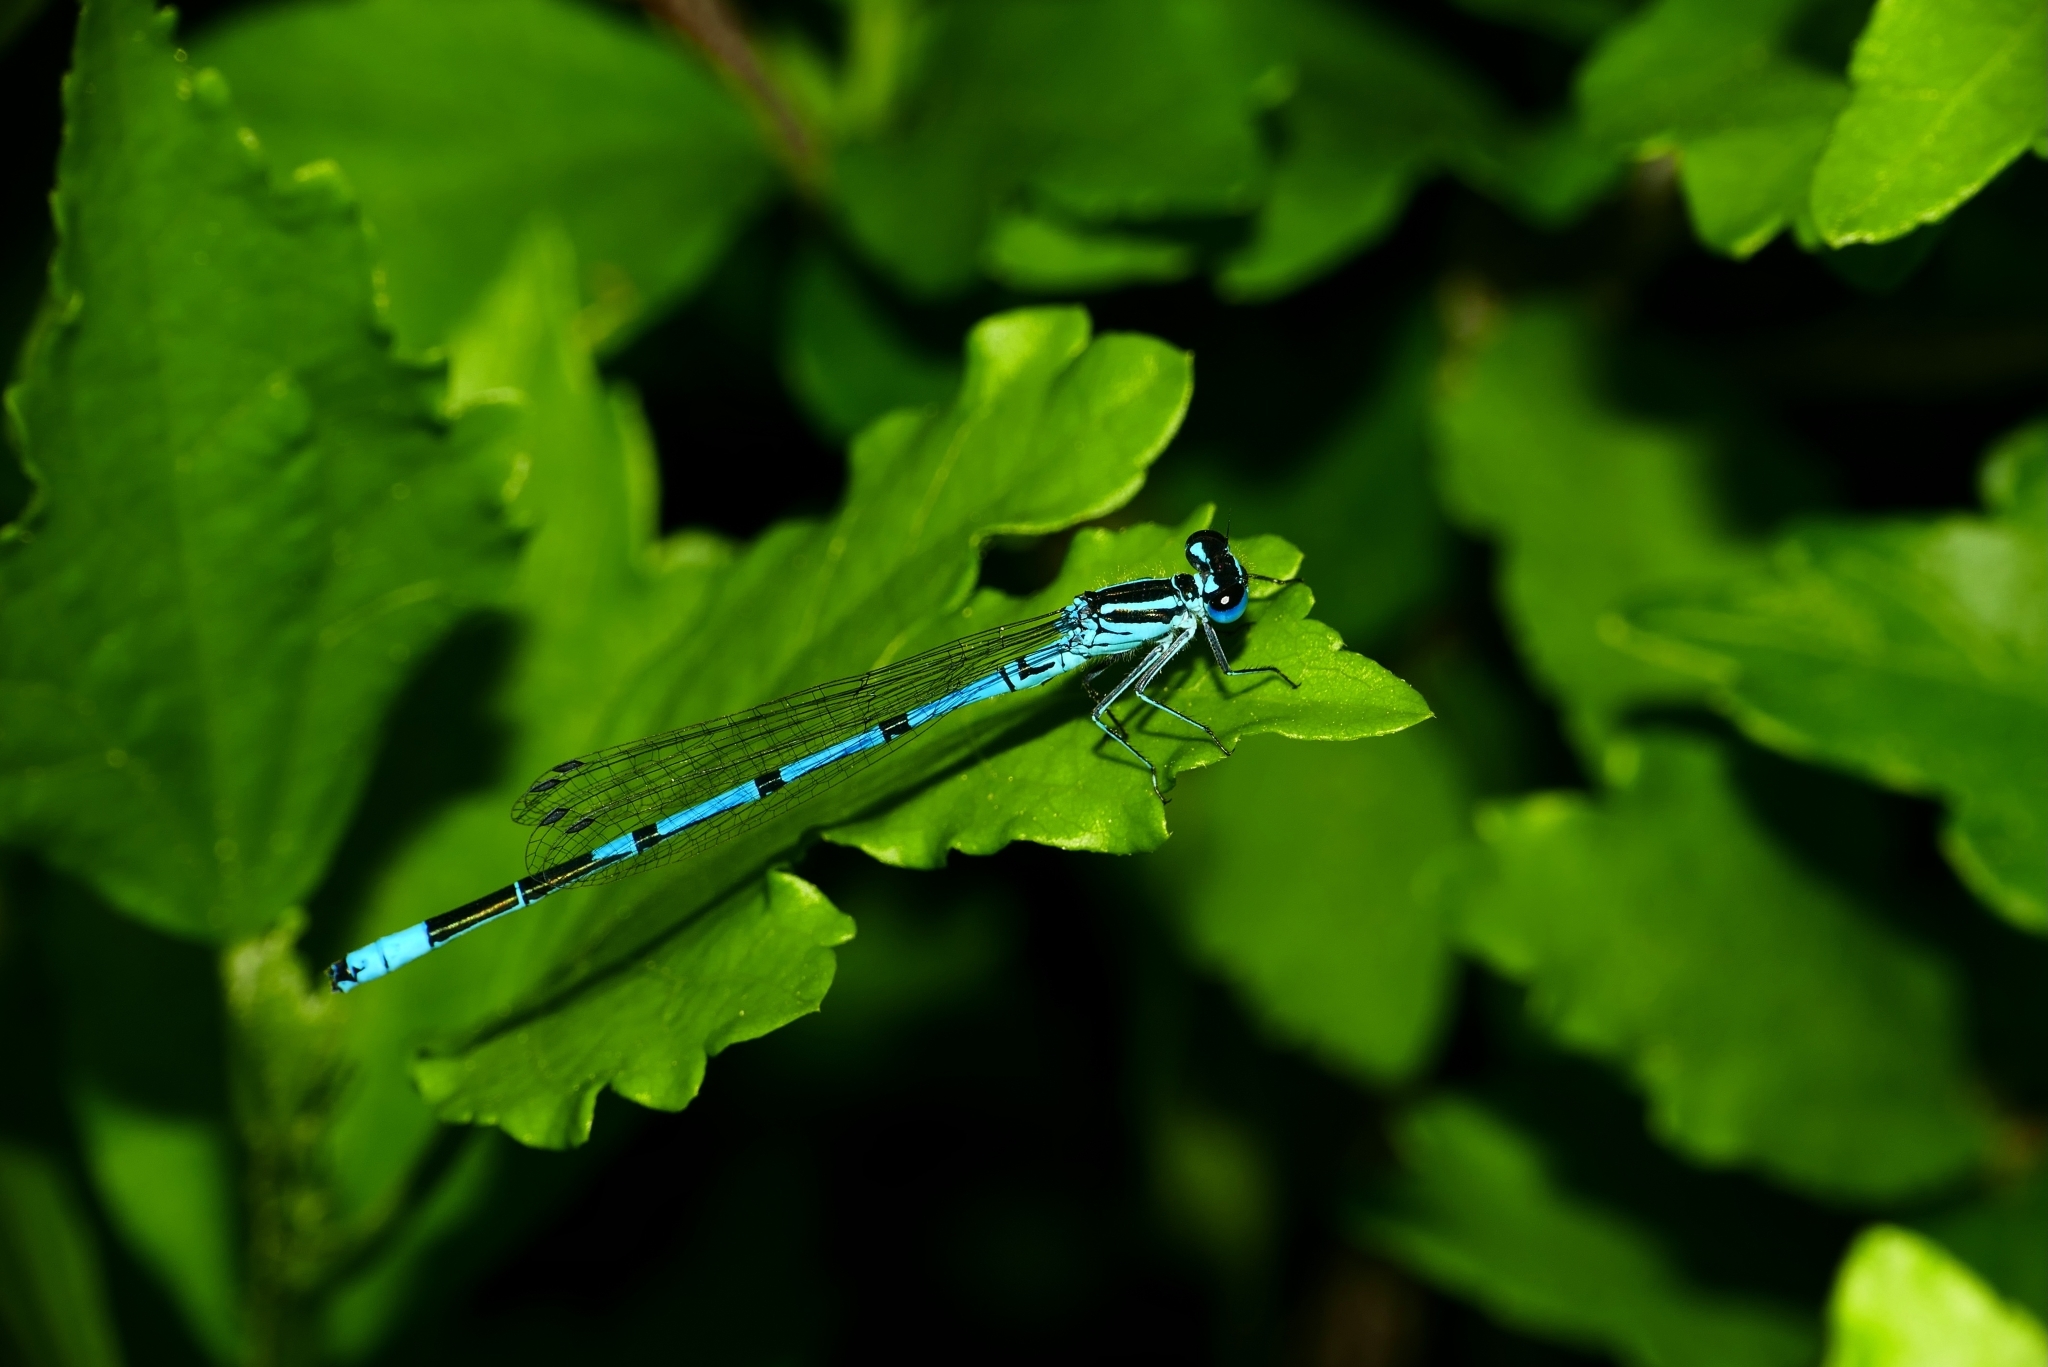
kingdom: Animalia
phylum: Arthropoda
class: Insecta
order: Odonata
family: Coenagrionidae
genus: Coenagrion
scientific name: Coenagrion puella
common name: Azure damselfly
